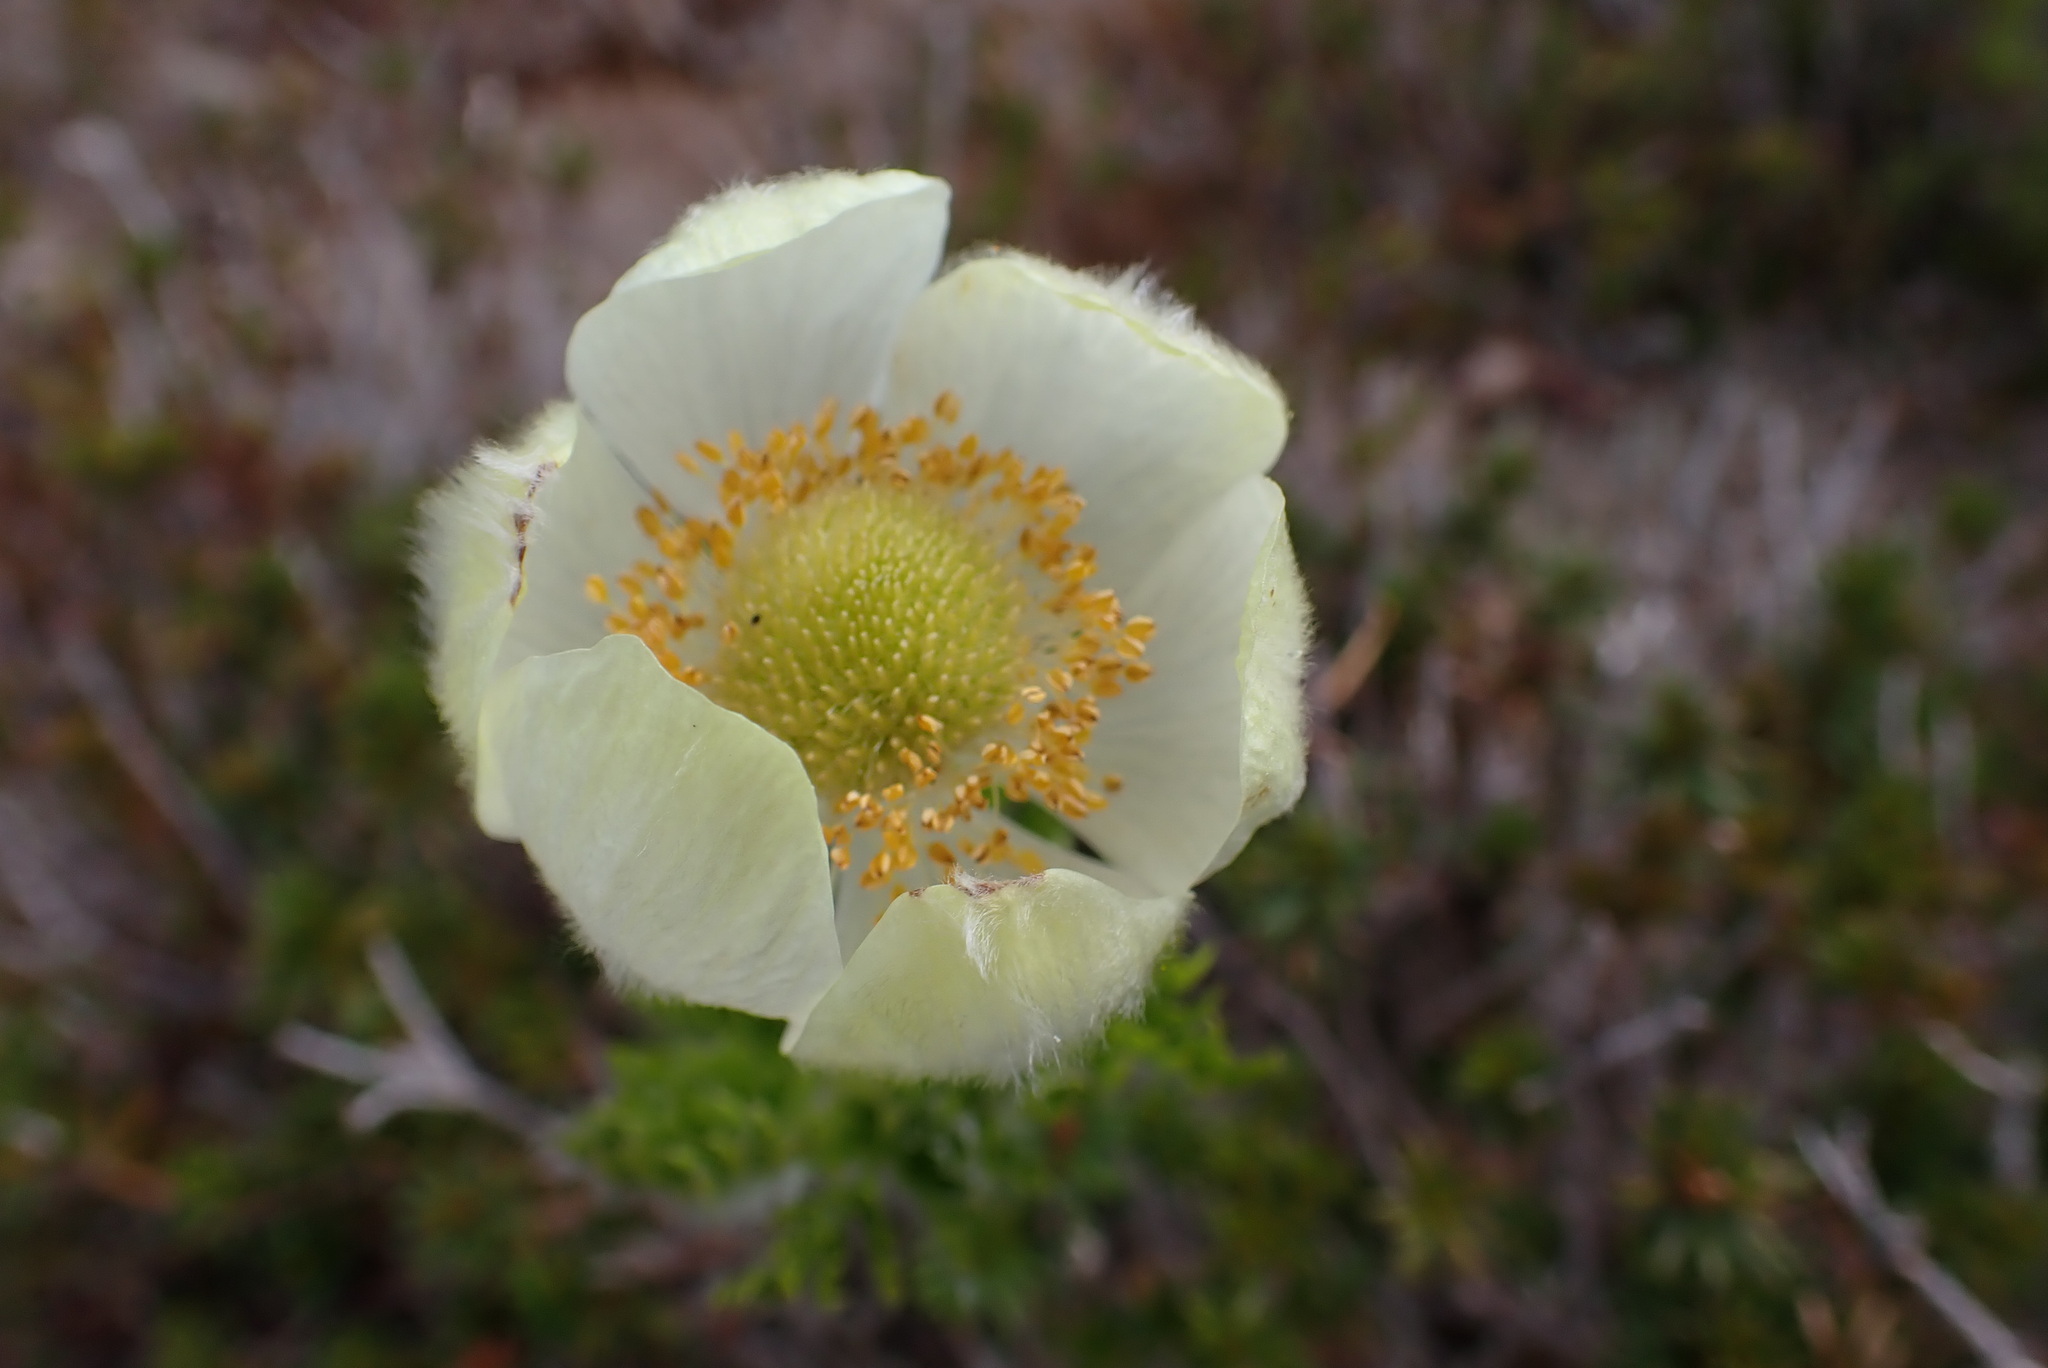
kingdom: Plantae
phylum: Tracheophyta
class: Magnoliopsida
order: Ranunculales
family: Ranunculaceae
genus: Pulsatilla
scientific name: Pulsatilla occidentalis
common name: Mountain pasqueflower
